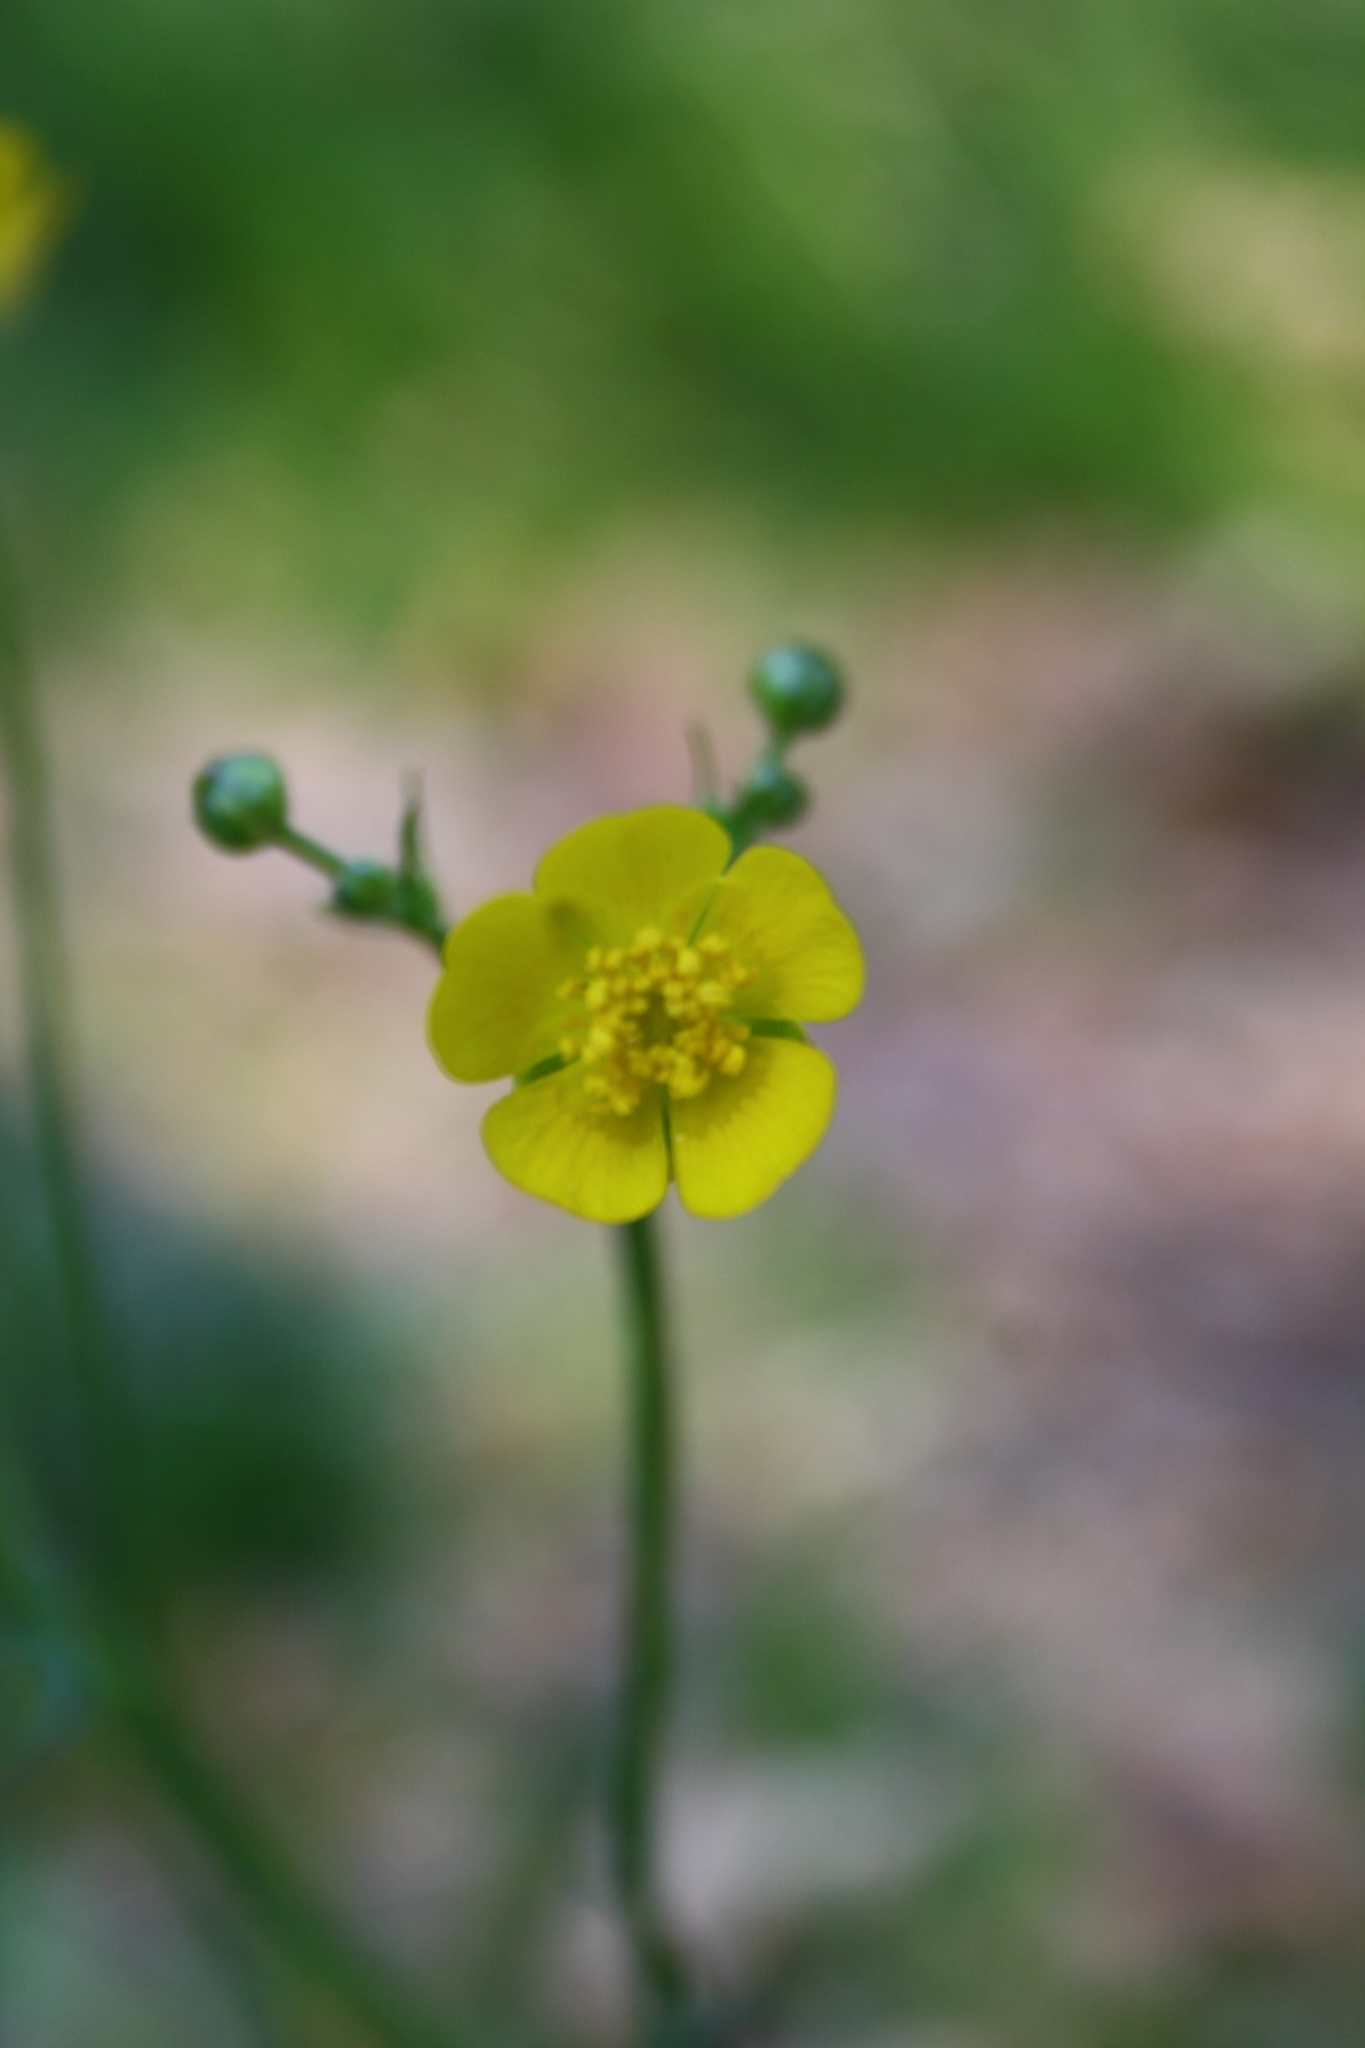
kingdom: Plantae
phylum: Tracheophyta
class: Magnoliopsida
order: Ranunculales
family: Ranunculaceae
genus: Ranunculus
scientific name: Ranunculus acris
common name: Meadow buttercup
